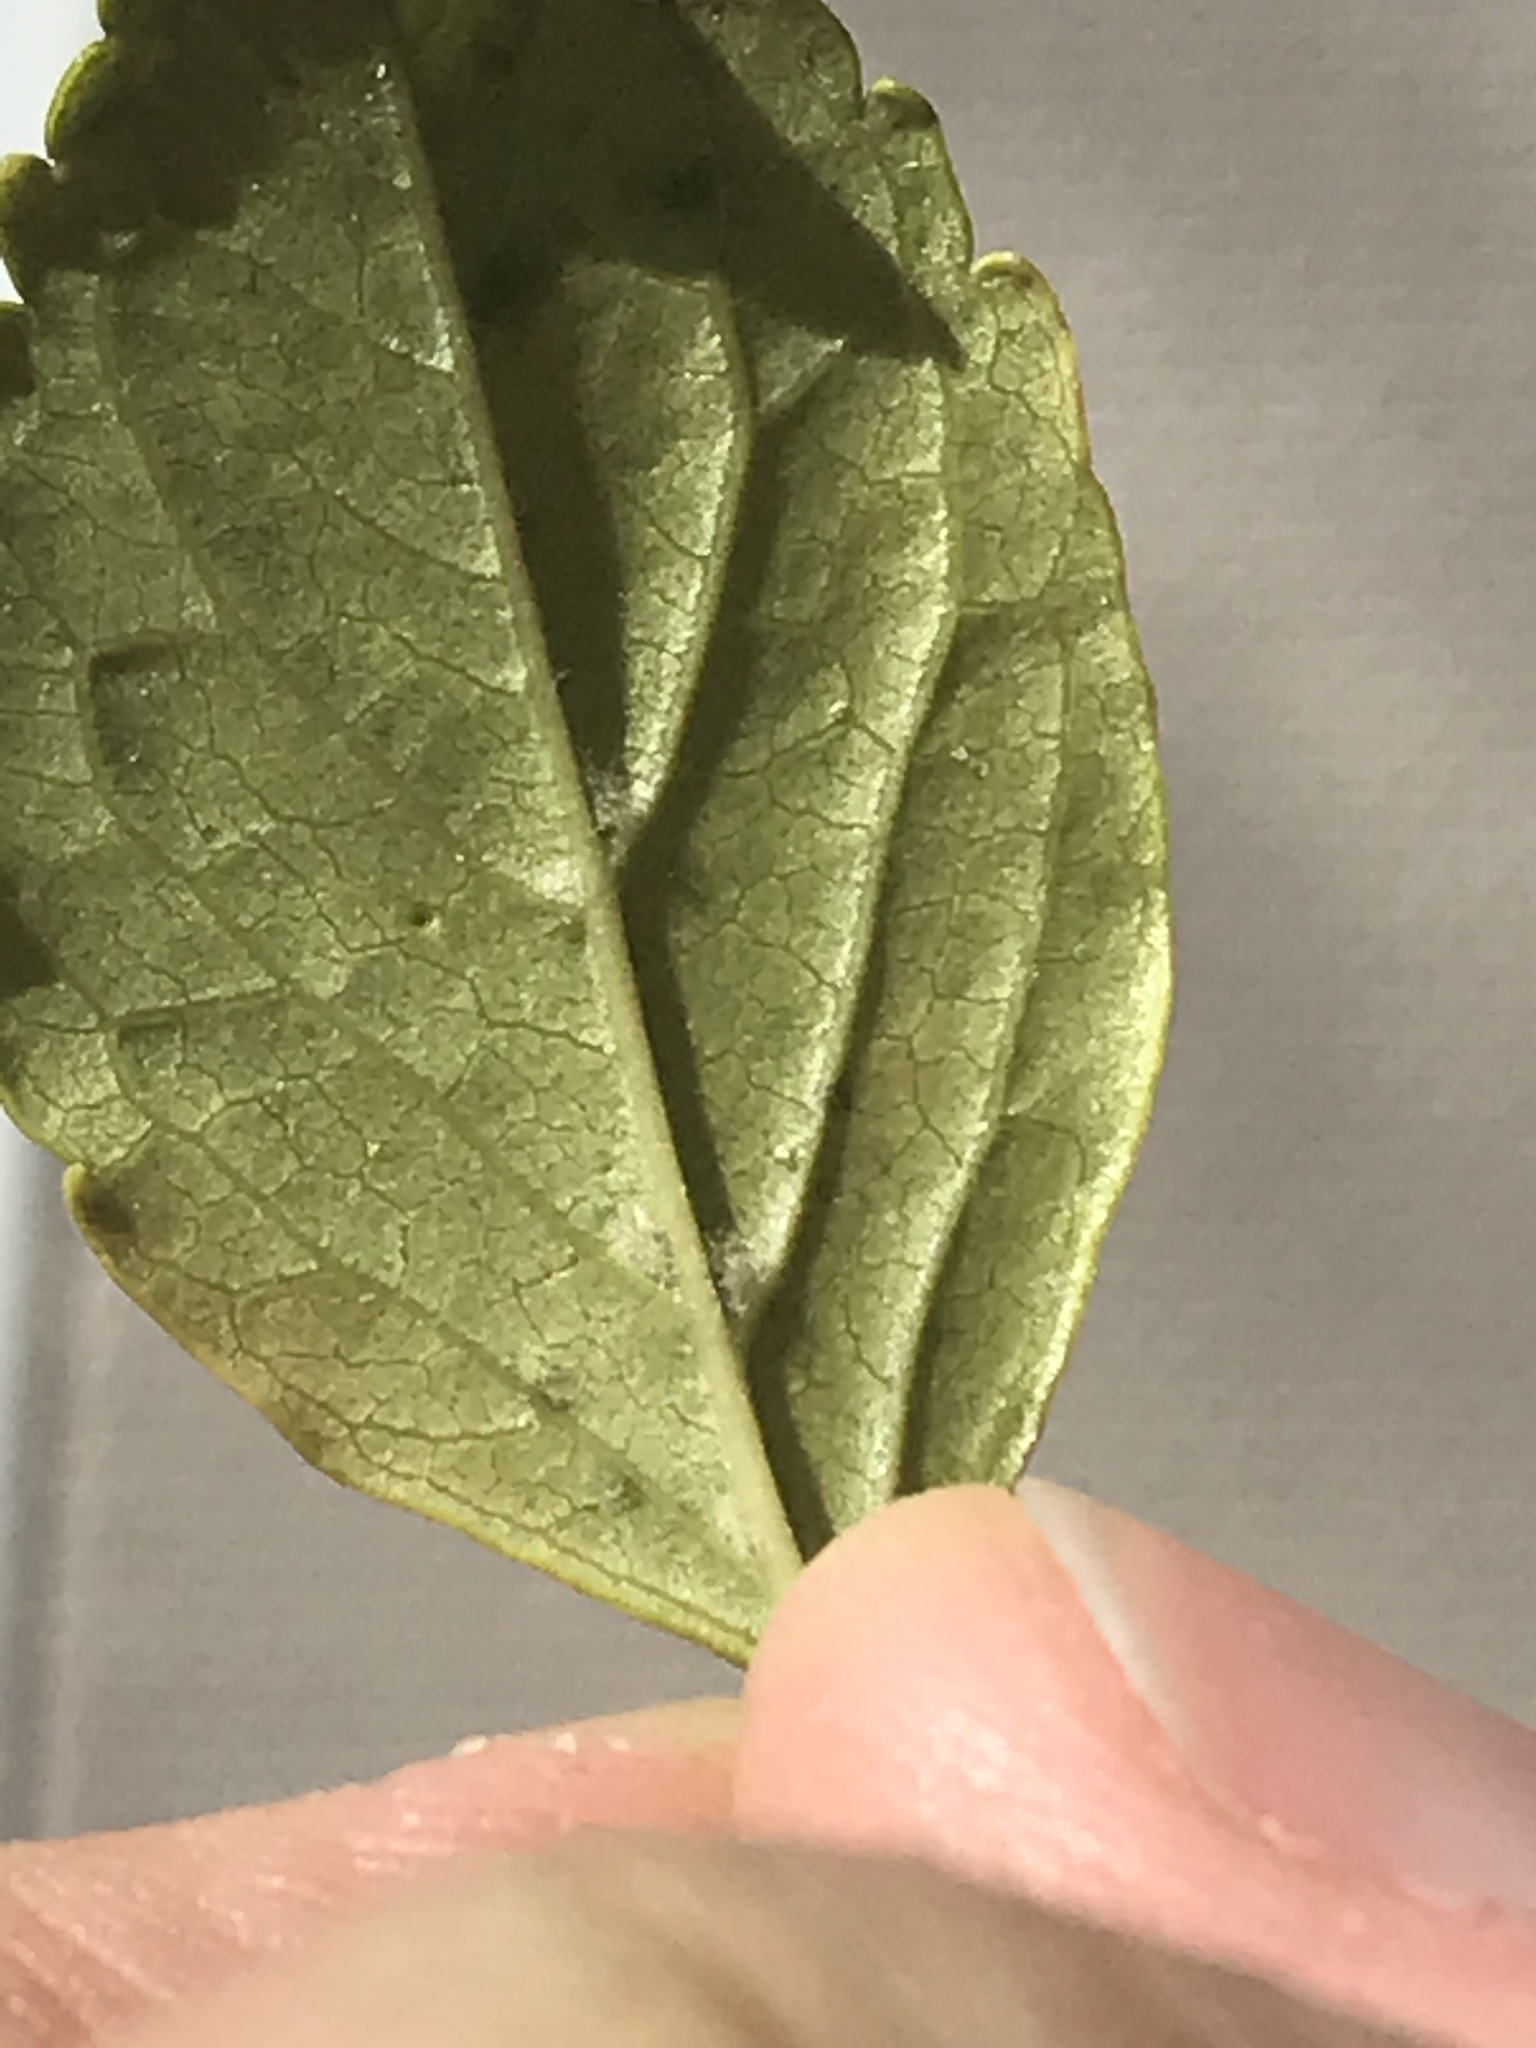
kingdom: Plantae
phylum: Tracheophyta
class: Magnoliopsida
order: Lamiales
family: Lamiaceae
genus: Micromeria
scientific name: Micromeria douglasii
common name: Yerba buena
